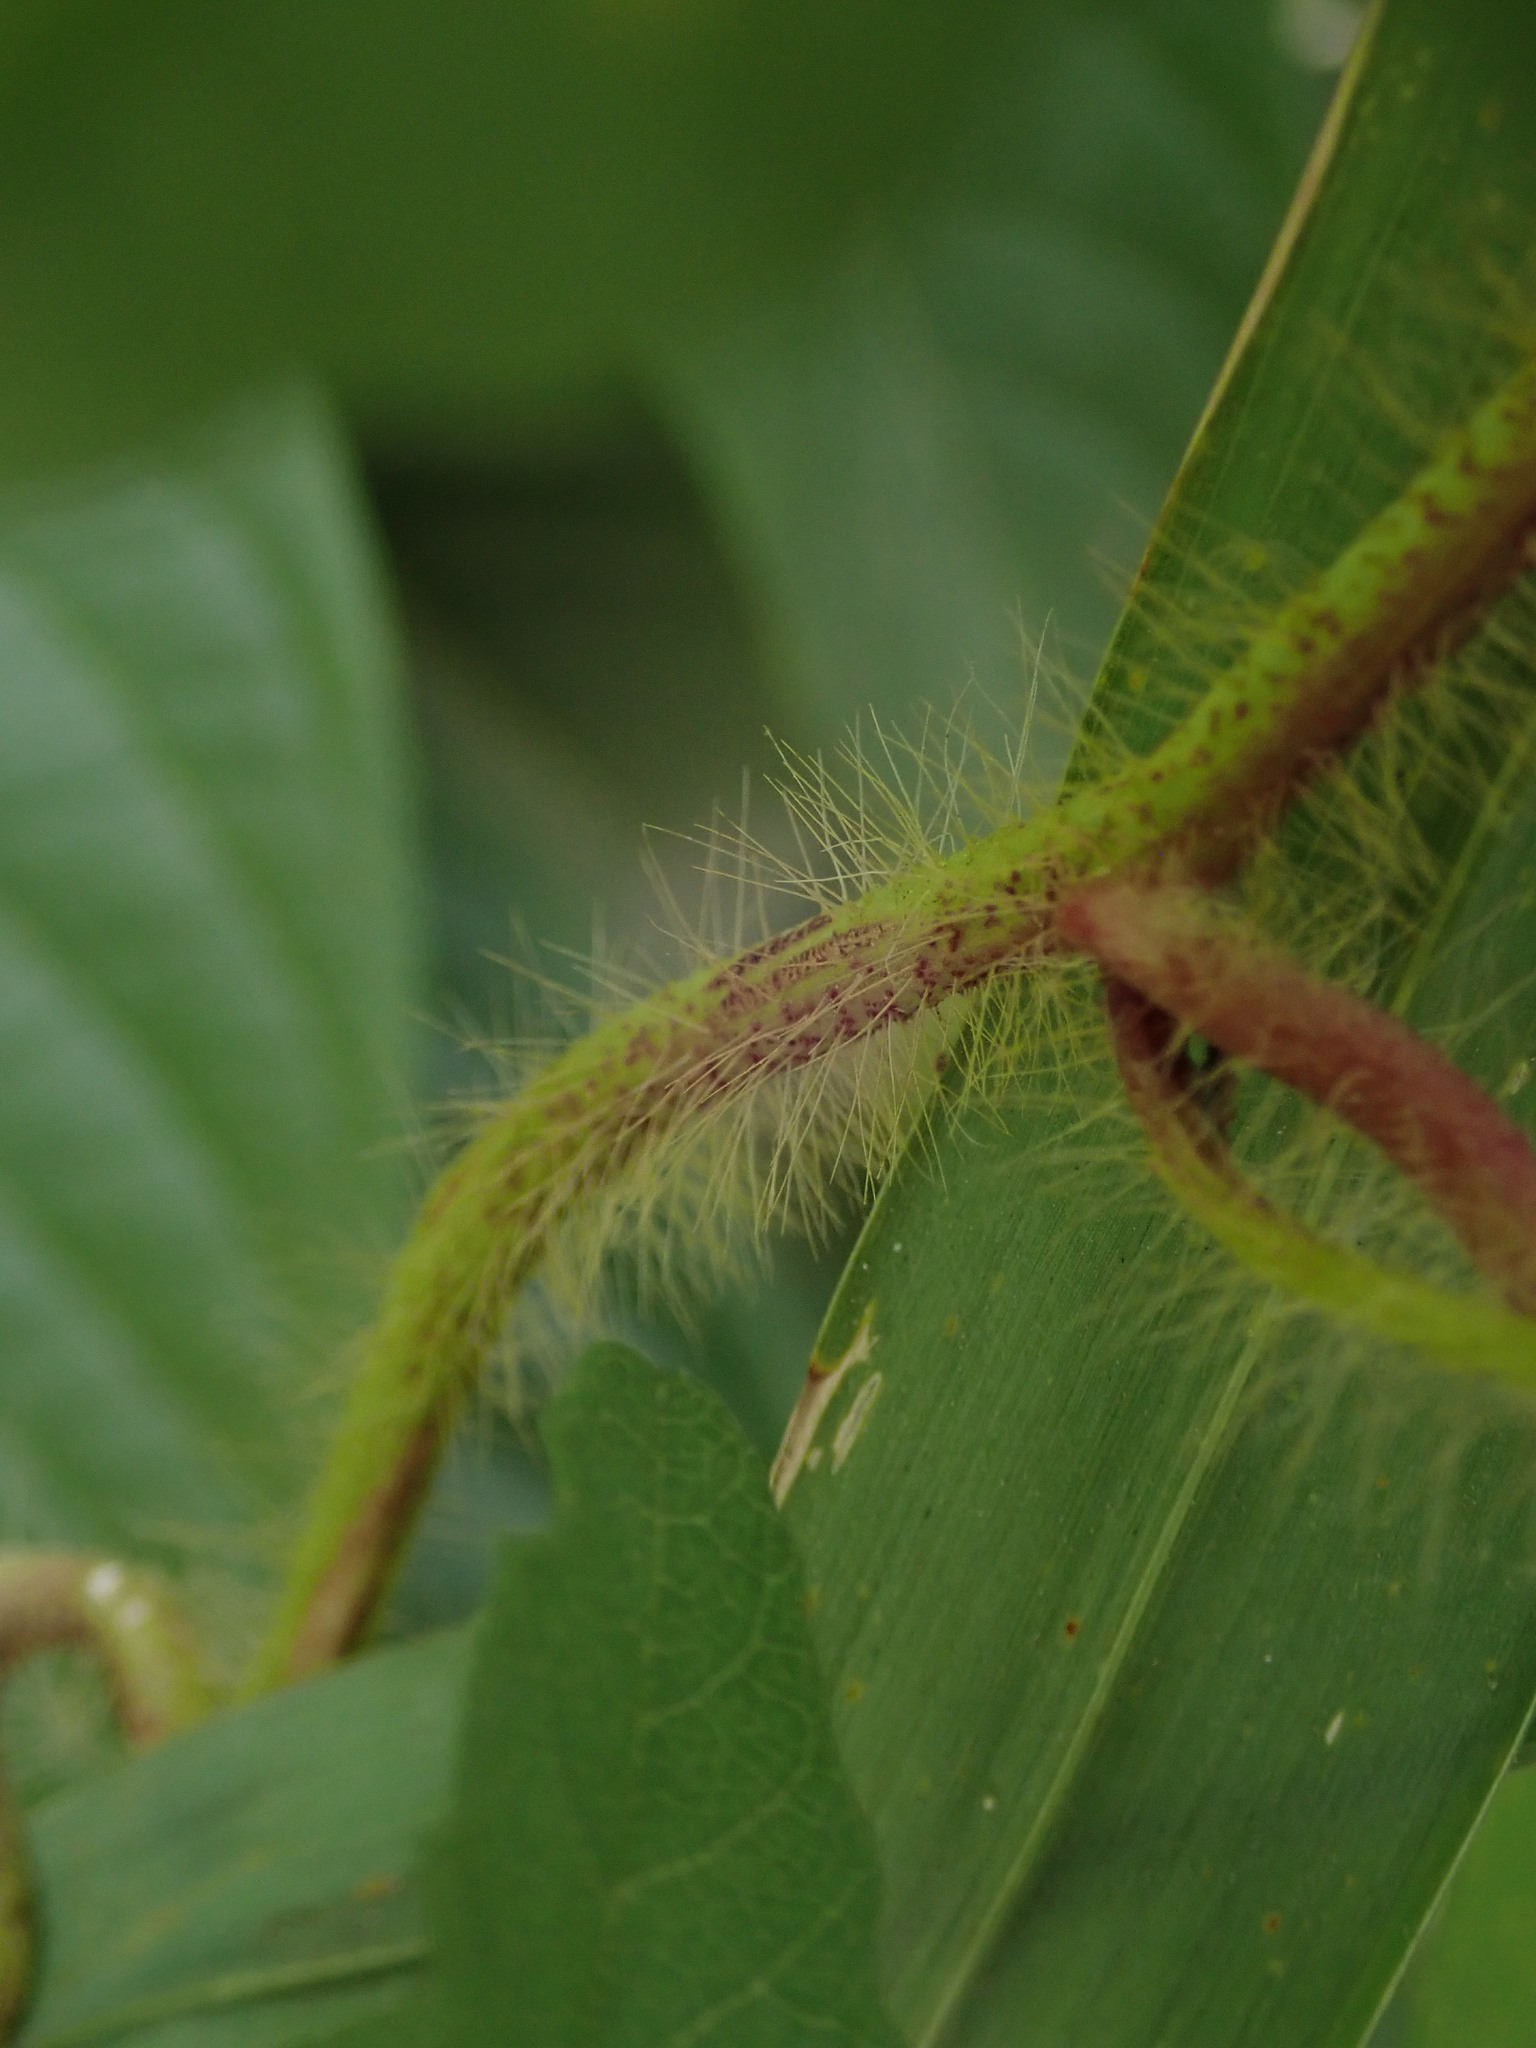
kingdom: Plantae
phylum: Tracheophyta
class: Magnoliopsida
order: Solanales
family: Convolvulaceae
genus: Distimake
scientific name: Distimake dissectus
